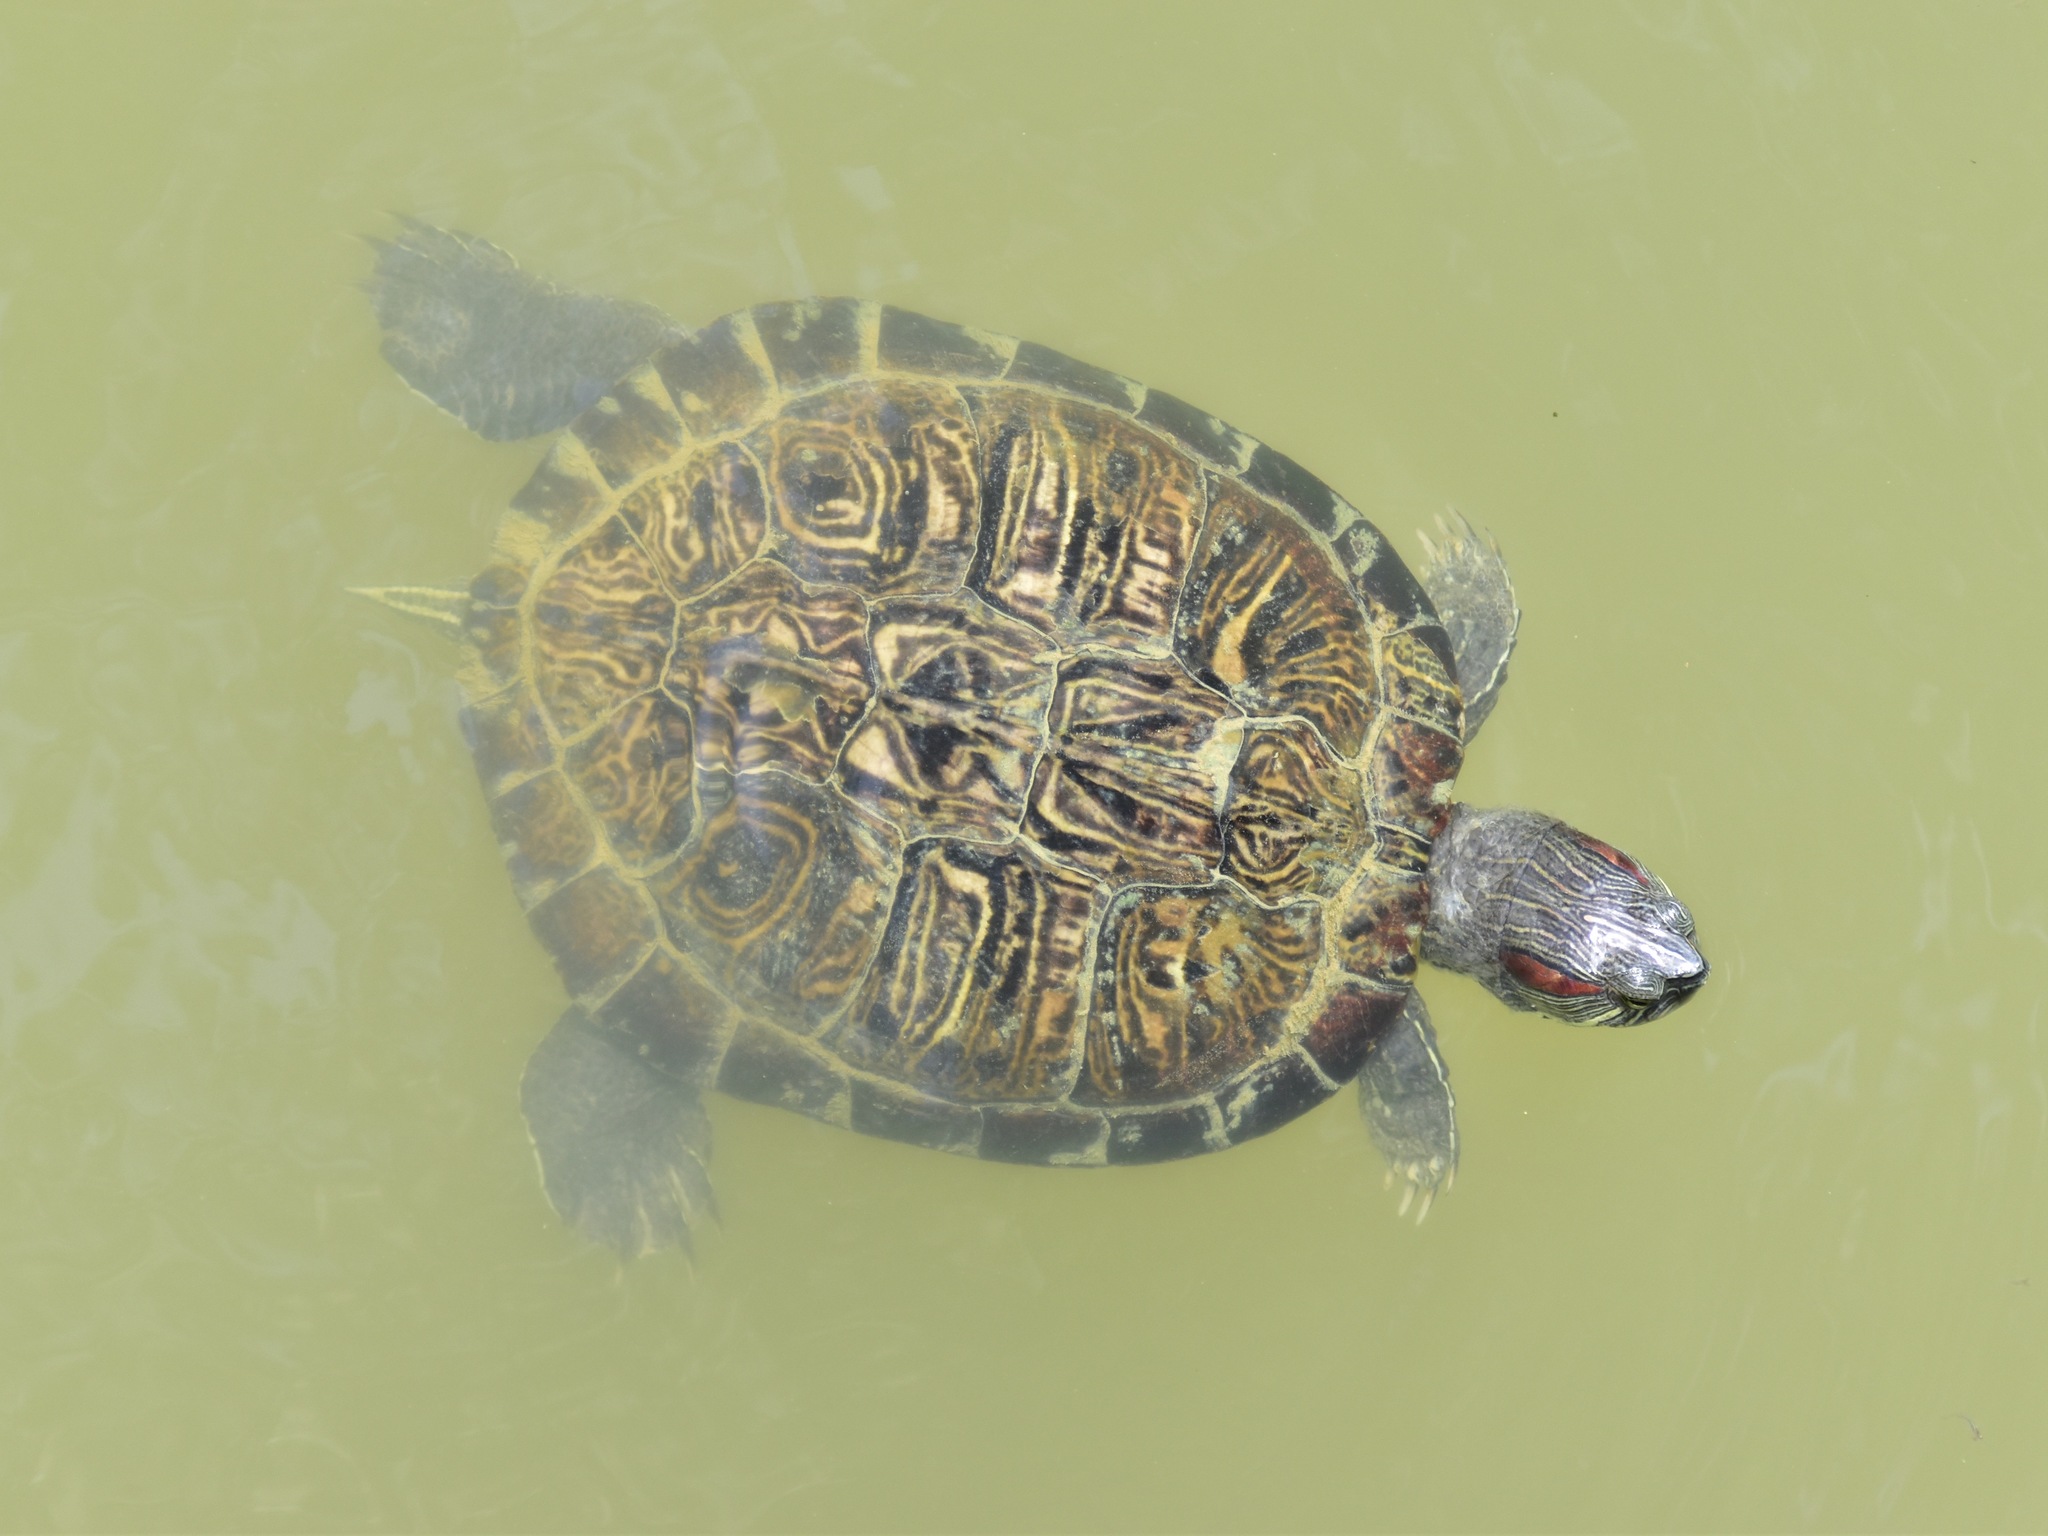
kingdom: Animalia
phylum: Chordata
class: Testudines
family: Emydidae
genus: Trachemys
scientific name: Trachemys scripta
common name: Slider
